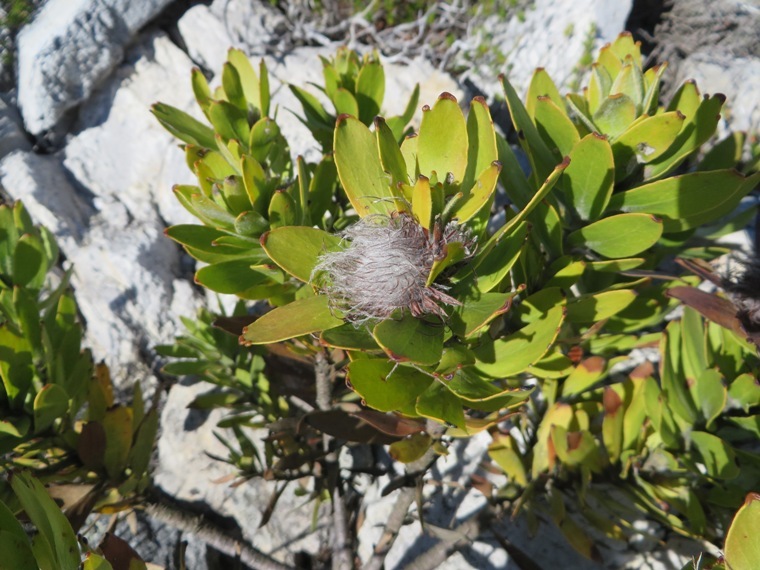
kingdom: Plantae
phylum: Tracheophyta
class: Magnoliopsida
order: Proteales
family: Proteaceae
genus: Leucospermum
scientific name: Leucospermum oleifolium
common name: Matches
